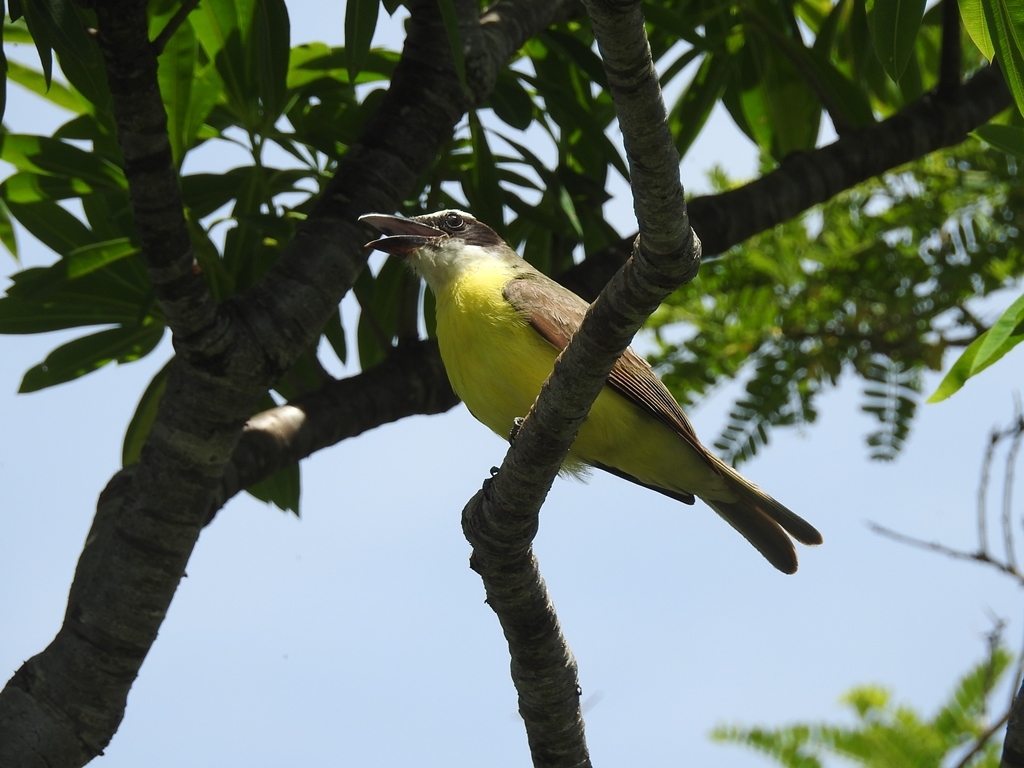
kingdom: Animalia
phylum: Chordata
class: Aves
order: Passeriformes
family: Tyrannidae
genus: Megarynchus
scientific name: Megarynchus pitangua
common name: Boat-billed flycatcher
